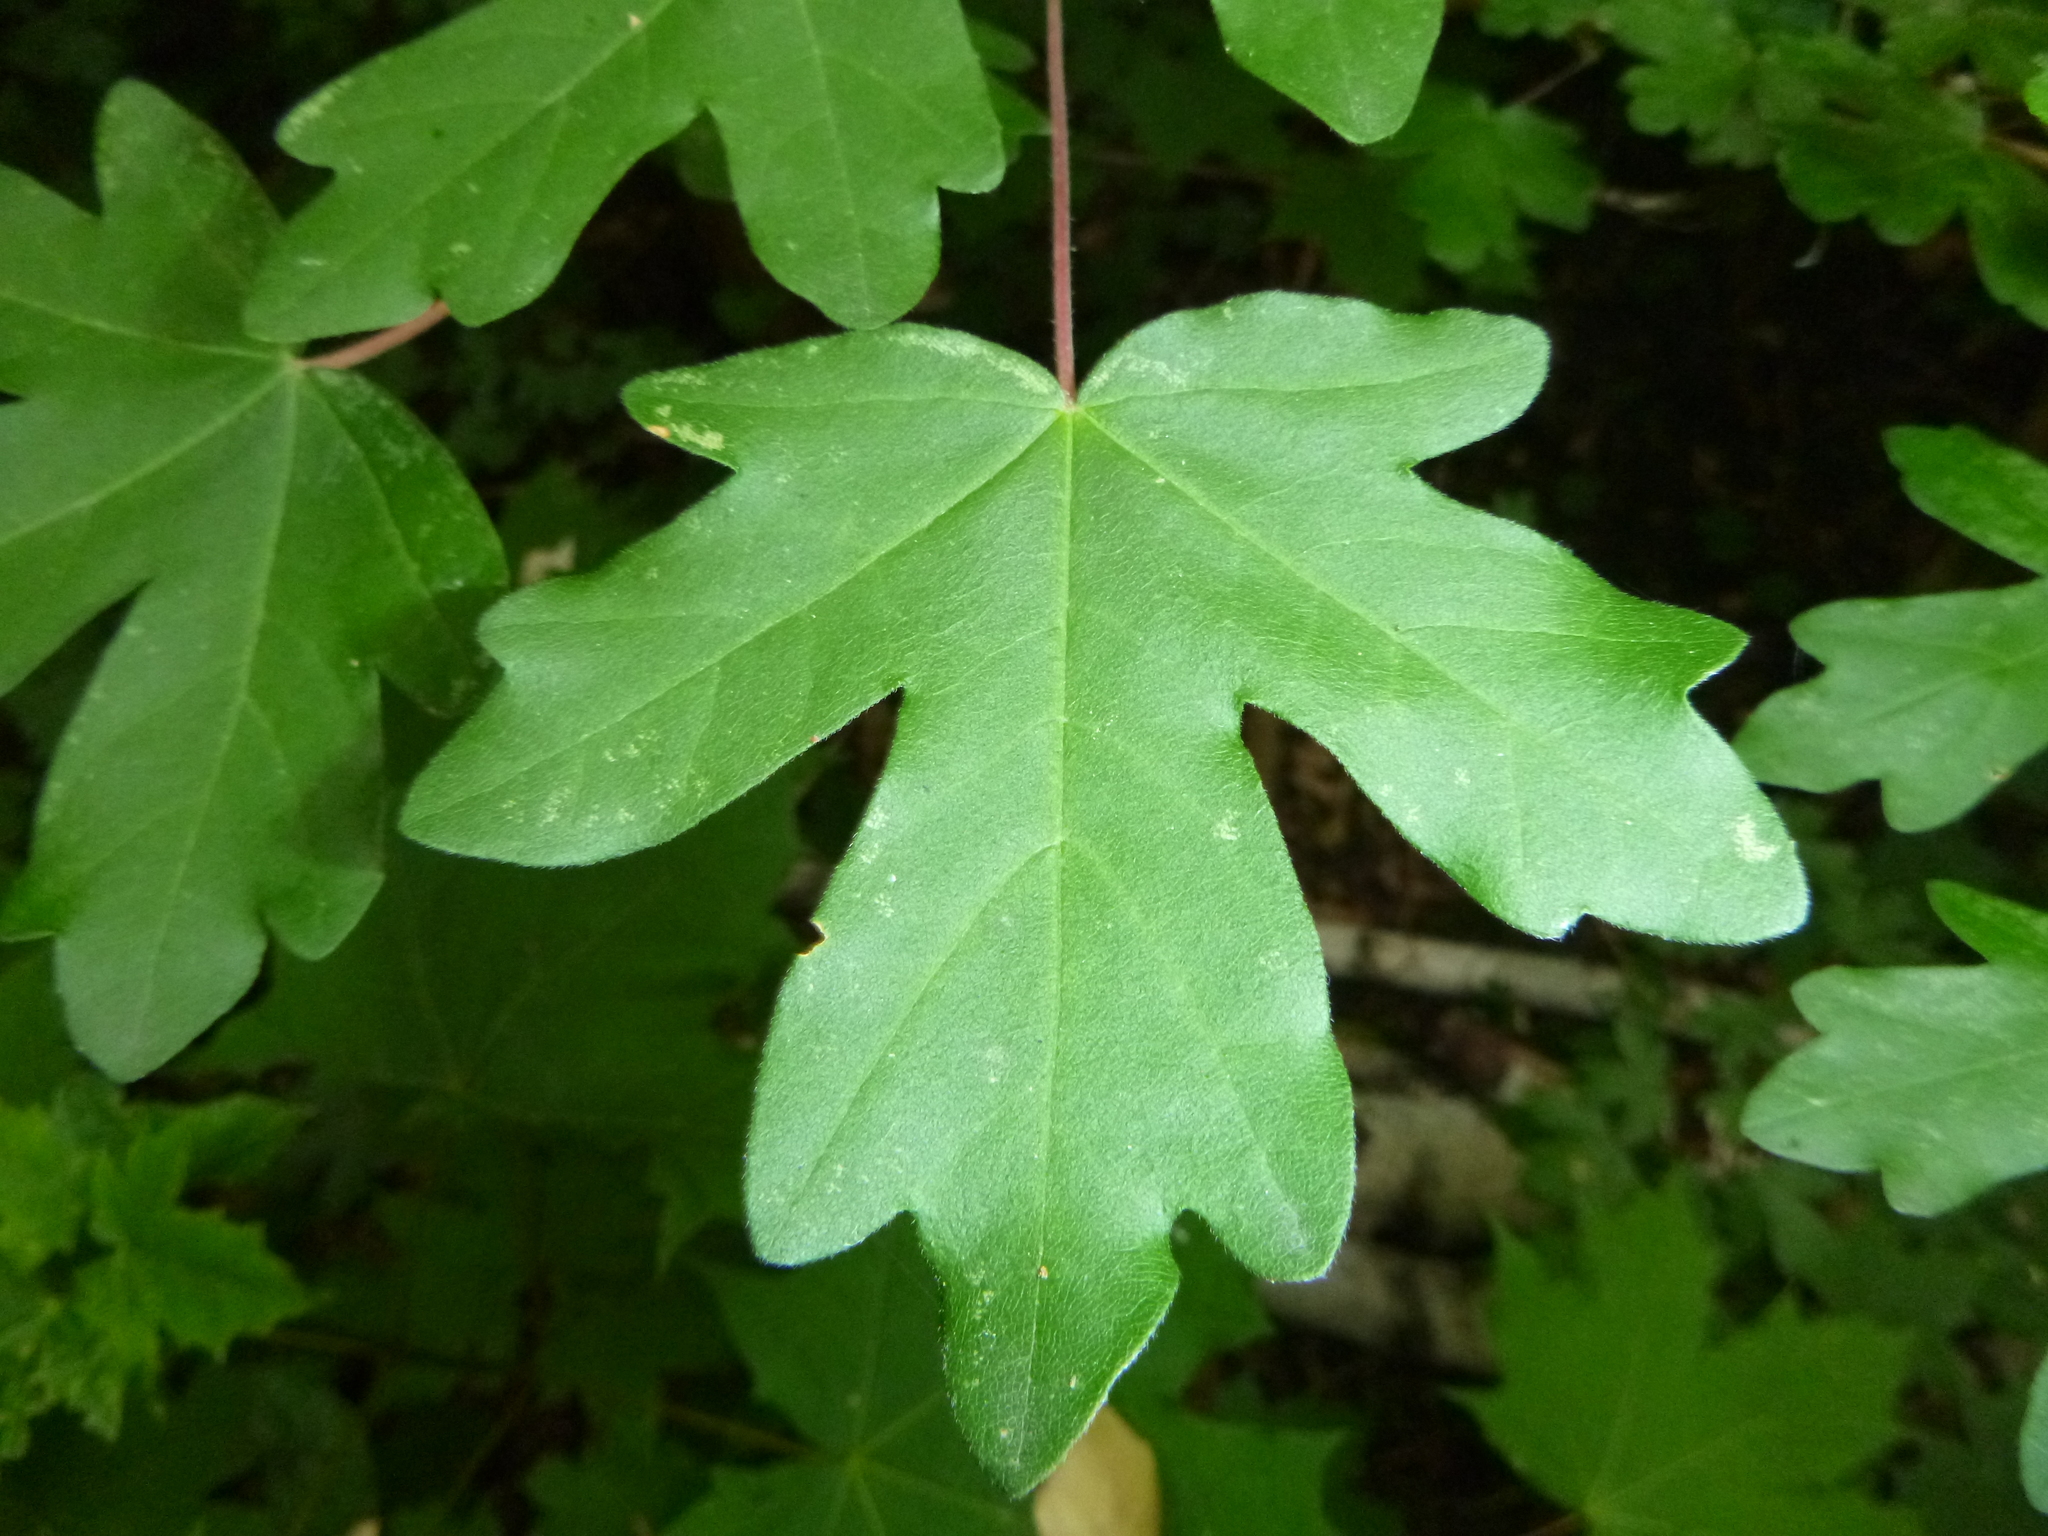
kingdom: Plantae
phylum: Tracheophyta
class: Magnoliopsida
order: Sapindales
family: Sapindaceae
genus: Acer
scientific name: Acer campestre
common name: Field maple
